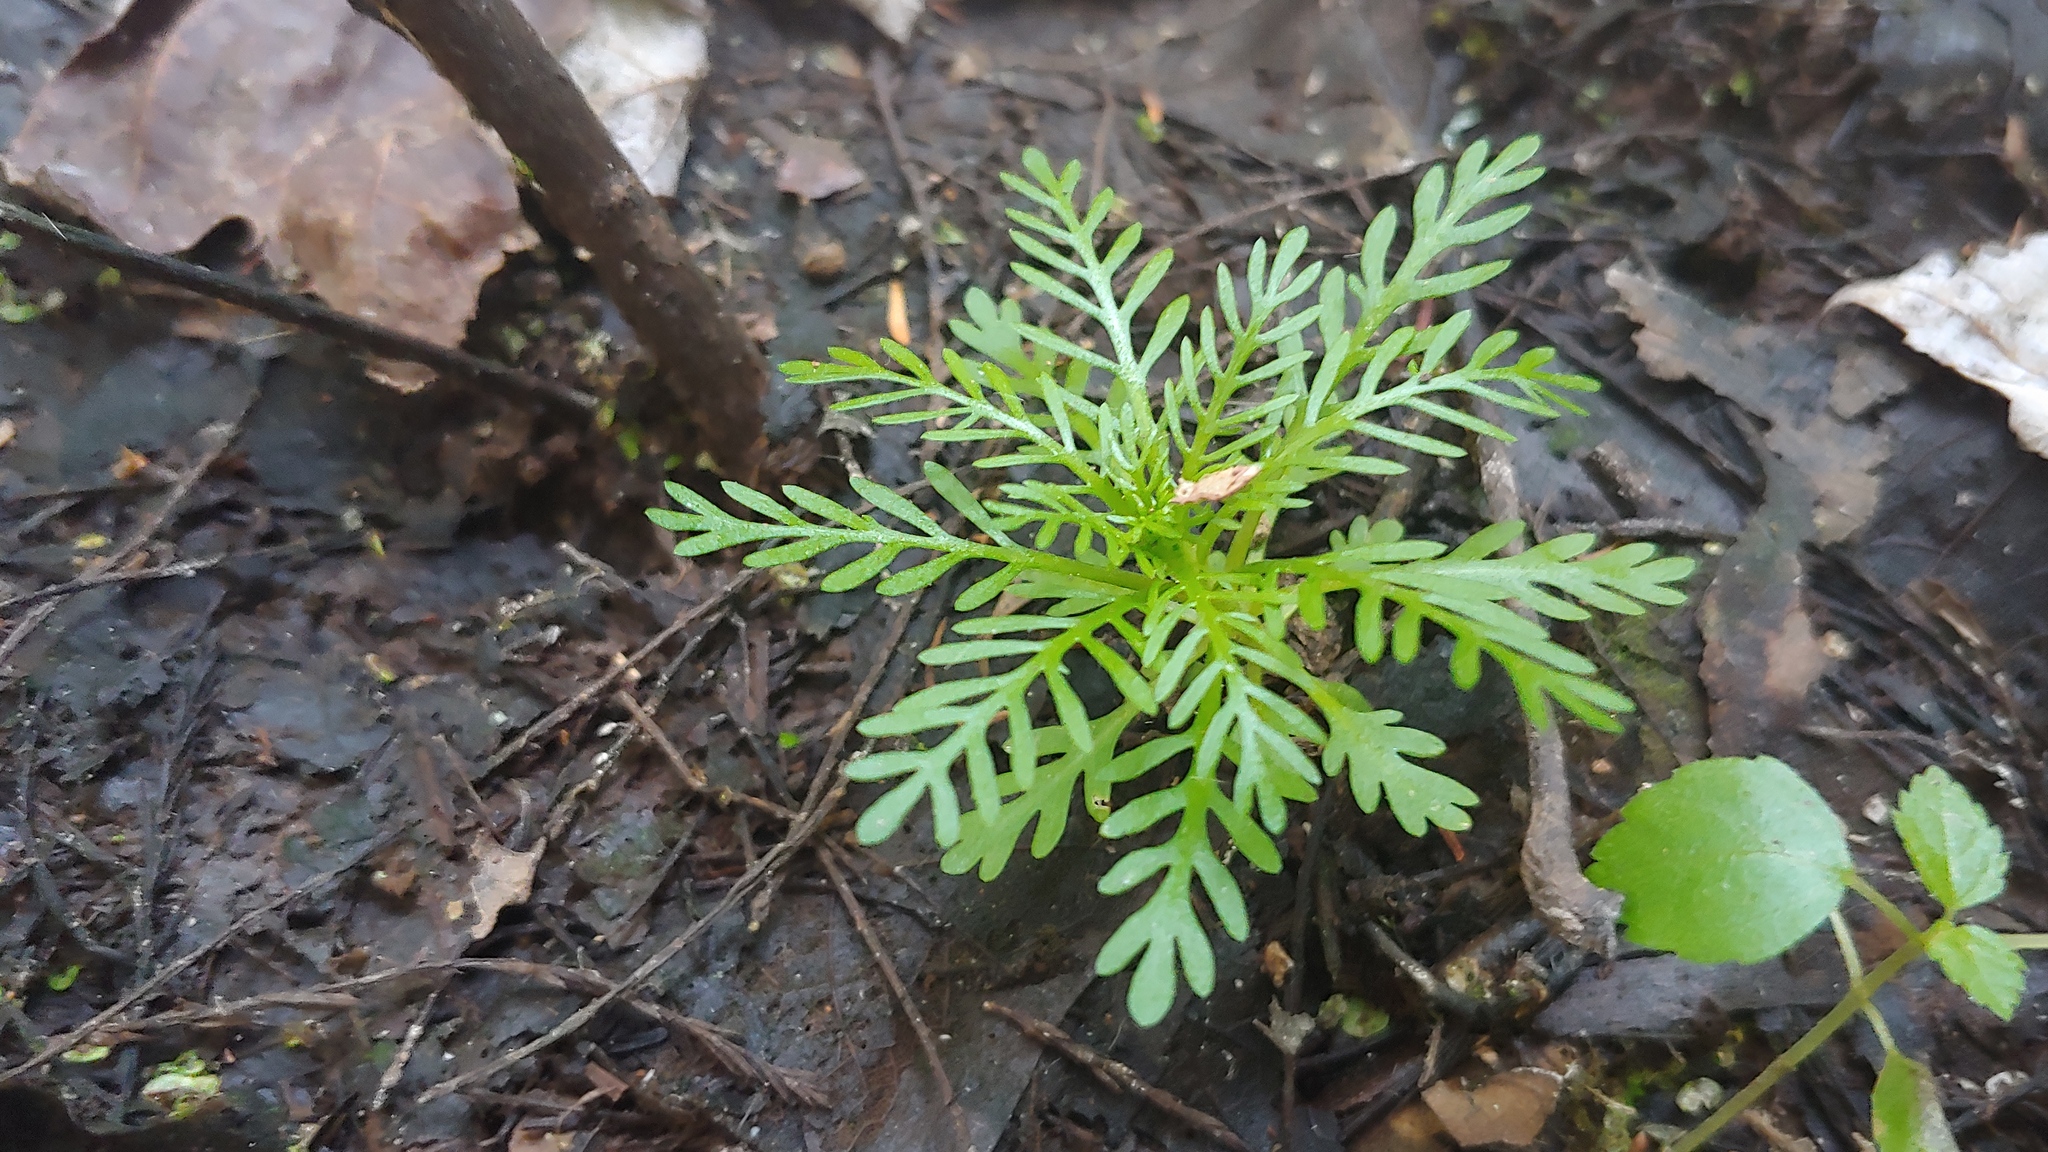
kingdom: Plantae
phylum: Tracheophyta
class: Magnoliopsida
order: Ericales
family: Primulaceae
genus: Hottonia
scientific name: Hottonia inflata
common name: American featherfoil
